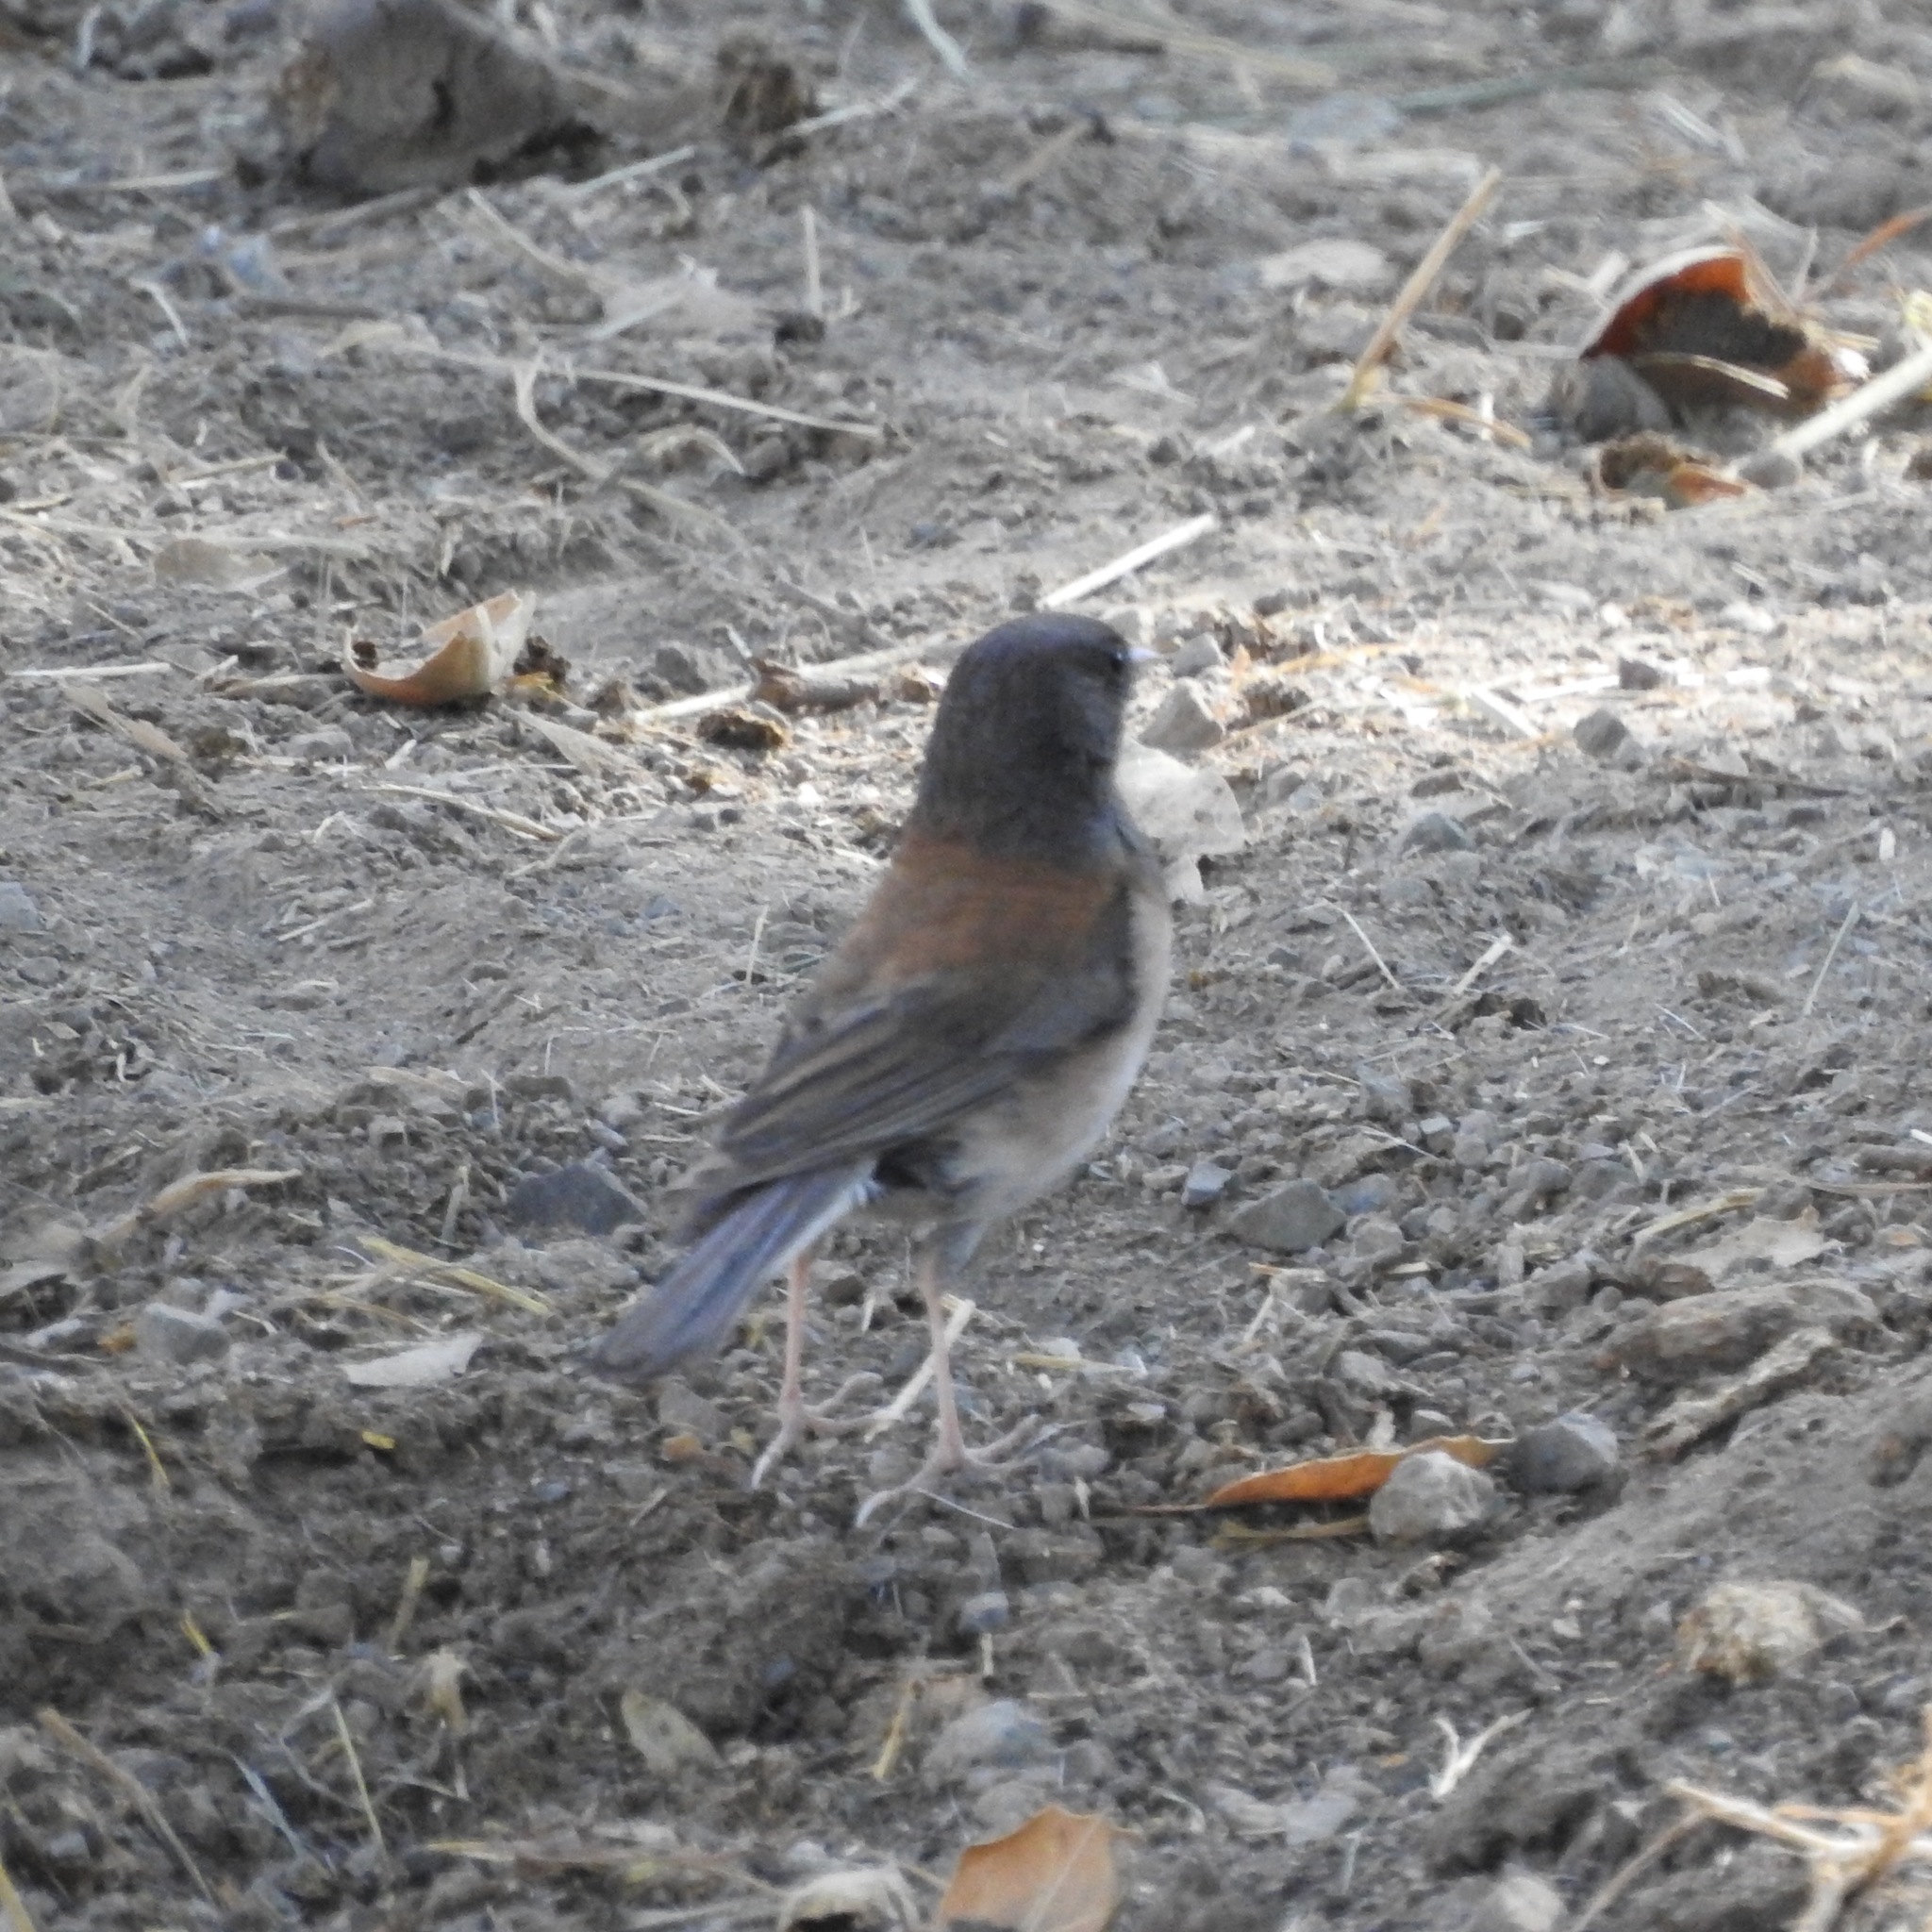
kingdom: Animalia
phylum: Chordata
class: Aves
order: Passeriformes
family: Passerellidae
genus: Junco
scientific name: Junco hyemalis
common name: Dark-eyed junco
